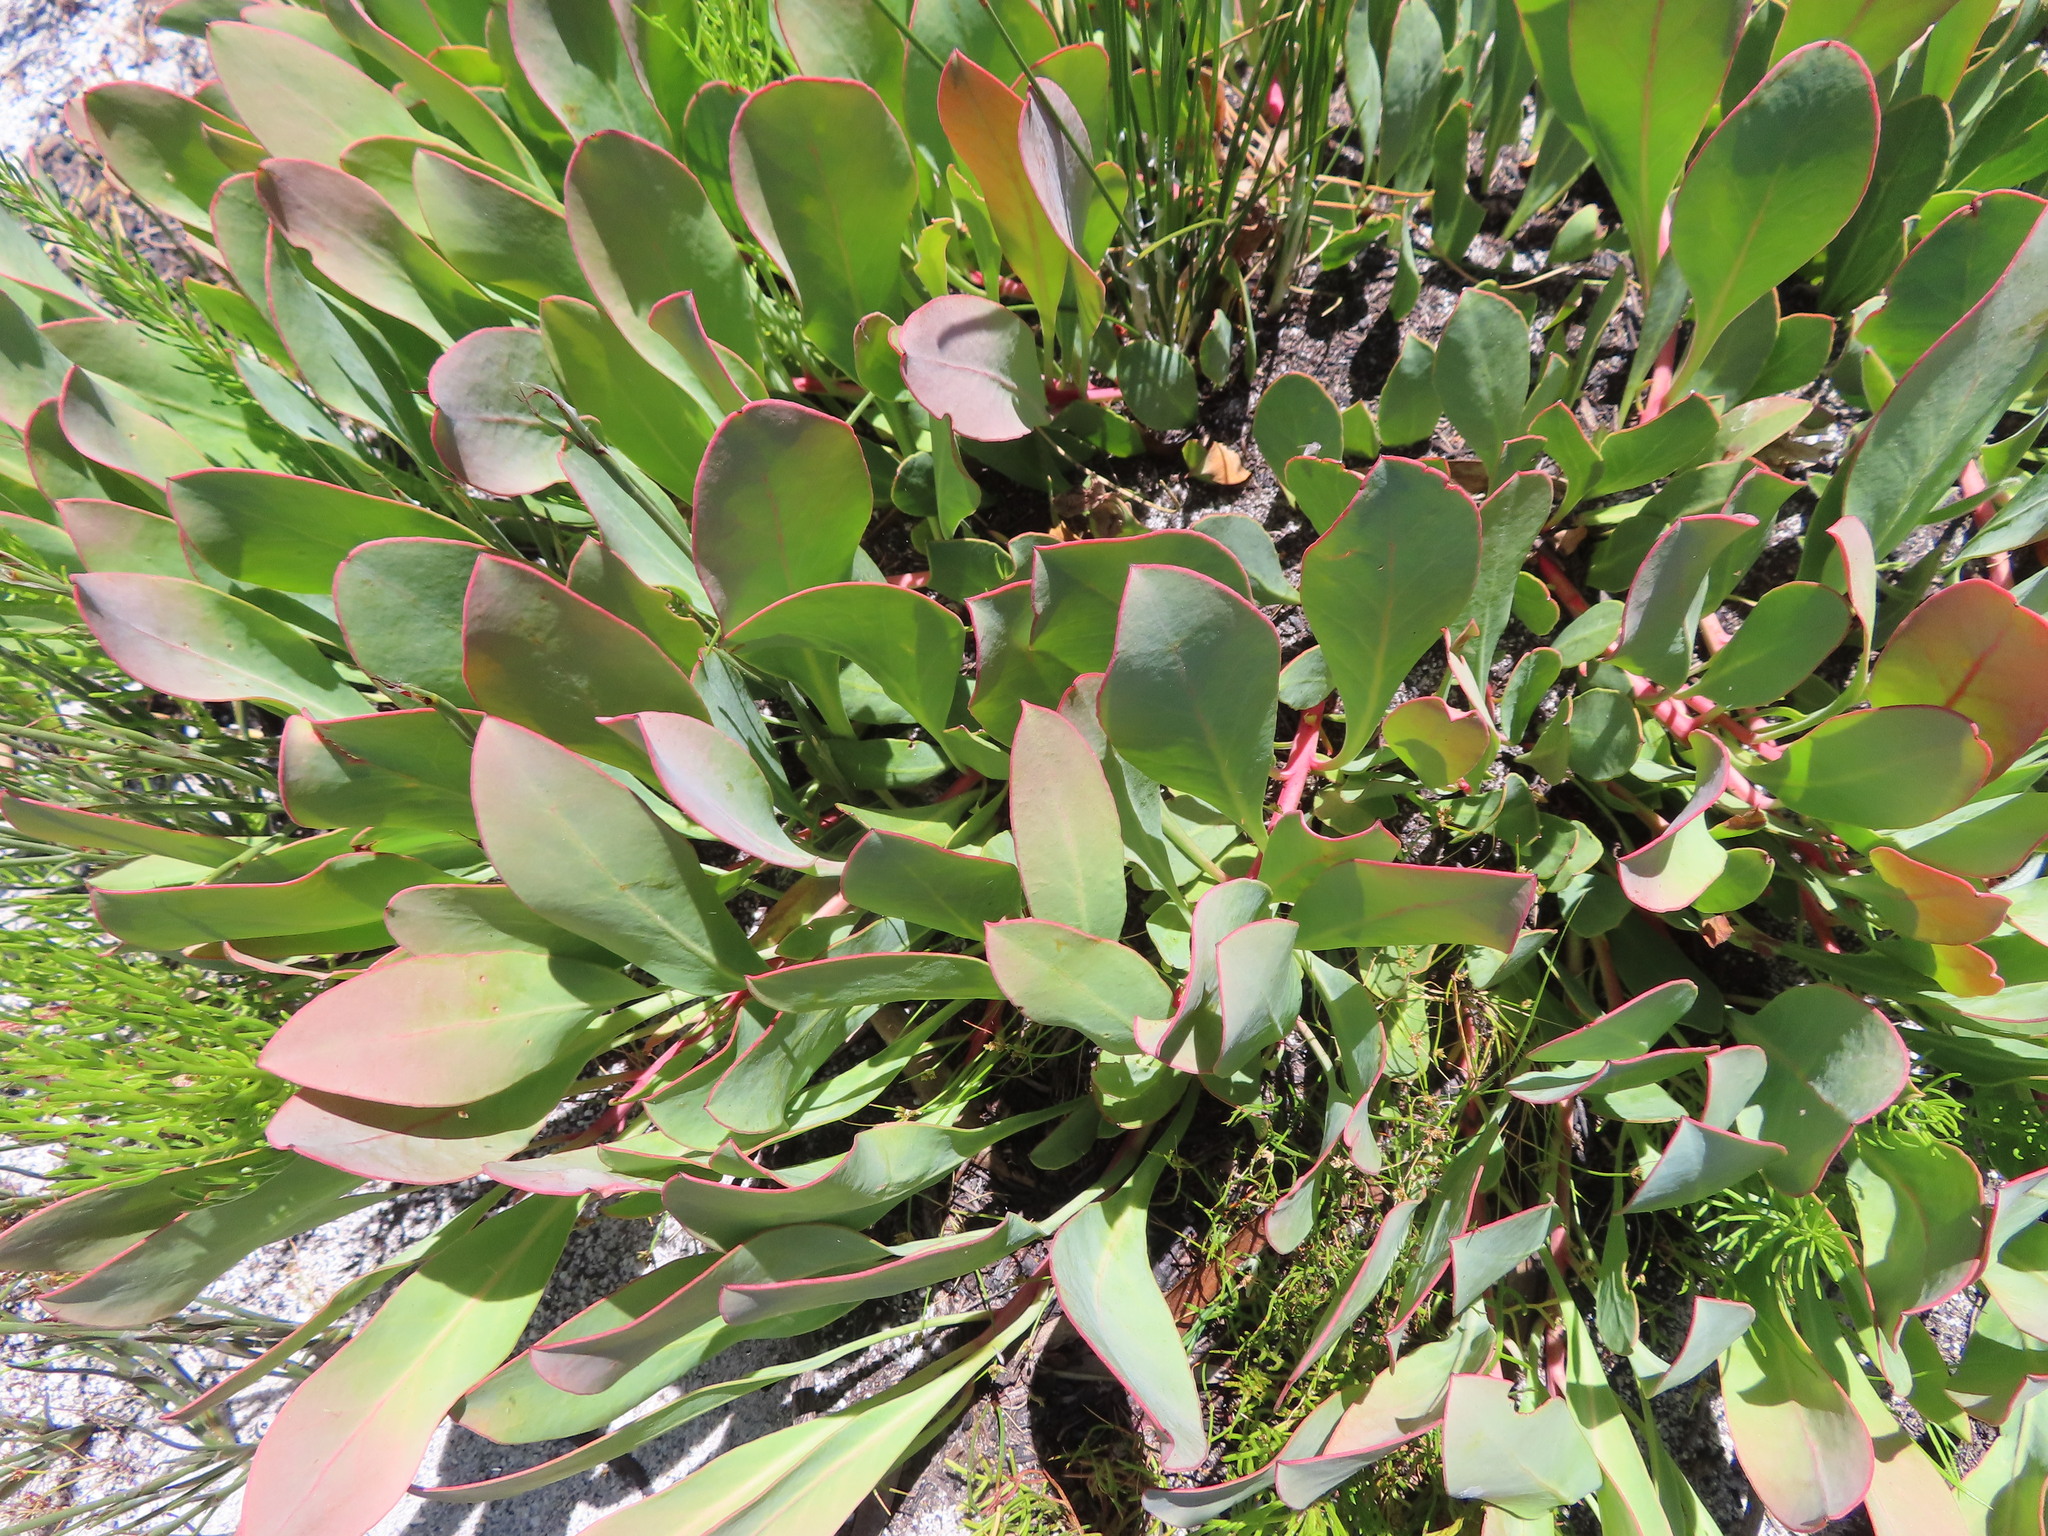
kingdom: Plantae
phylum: Tracheophyta
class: Magnoliopsida
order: Proteales
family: Proteaceae
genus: Protea
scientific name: Protea acaulos
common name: Common ground sugarbush
